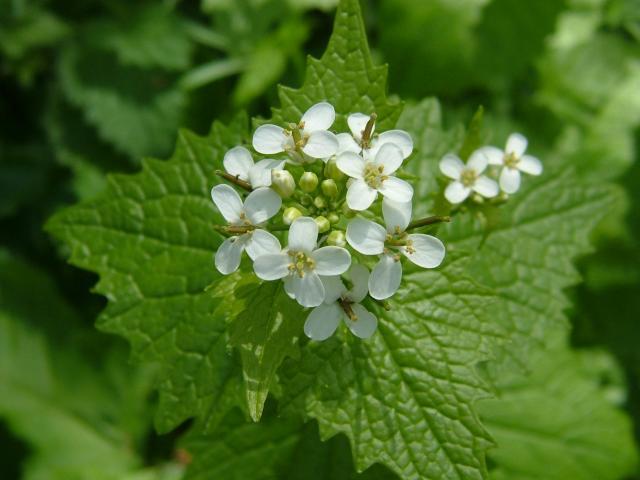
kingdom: Plantae
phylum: Tracheophyta
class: Magnoliopsida
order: Brassicales
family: Brassicaceae
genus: Alliaria
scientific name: Alliaria petiolata
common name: Garlic mustard
